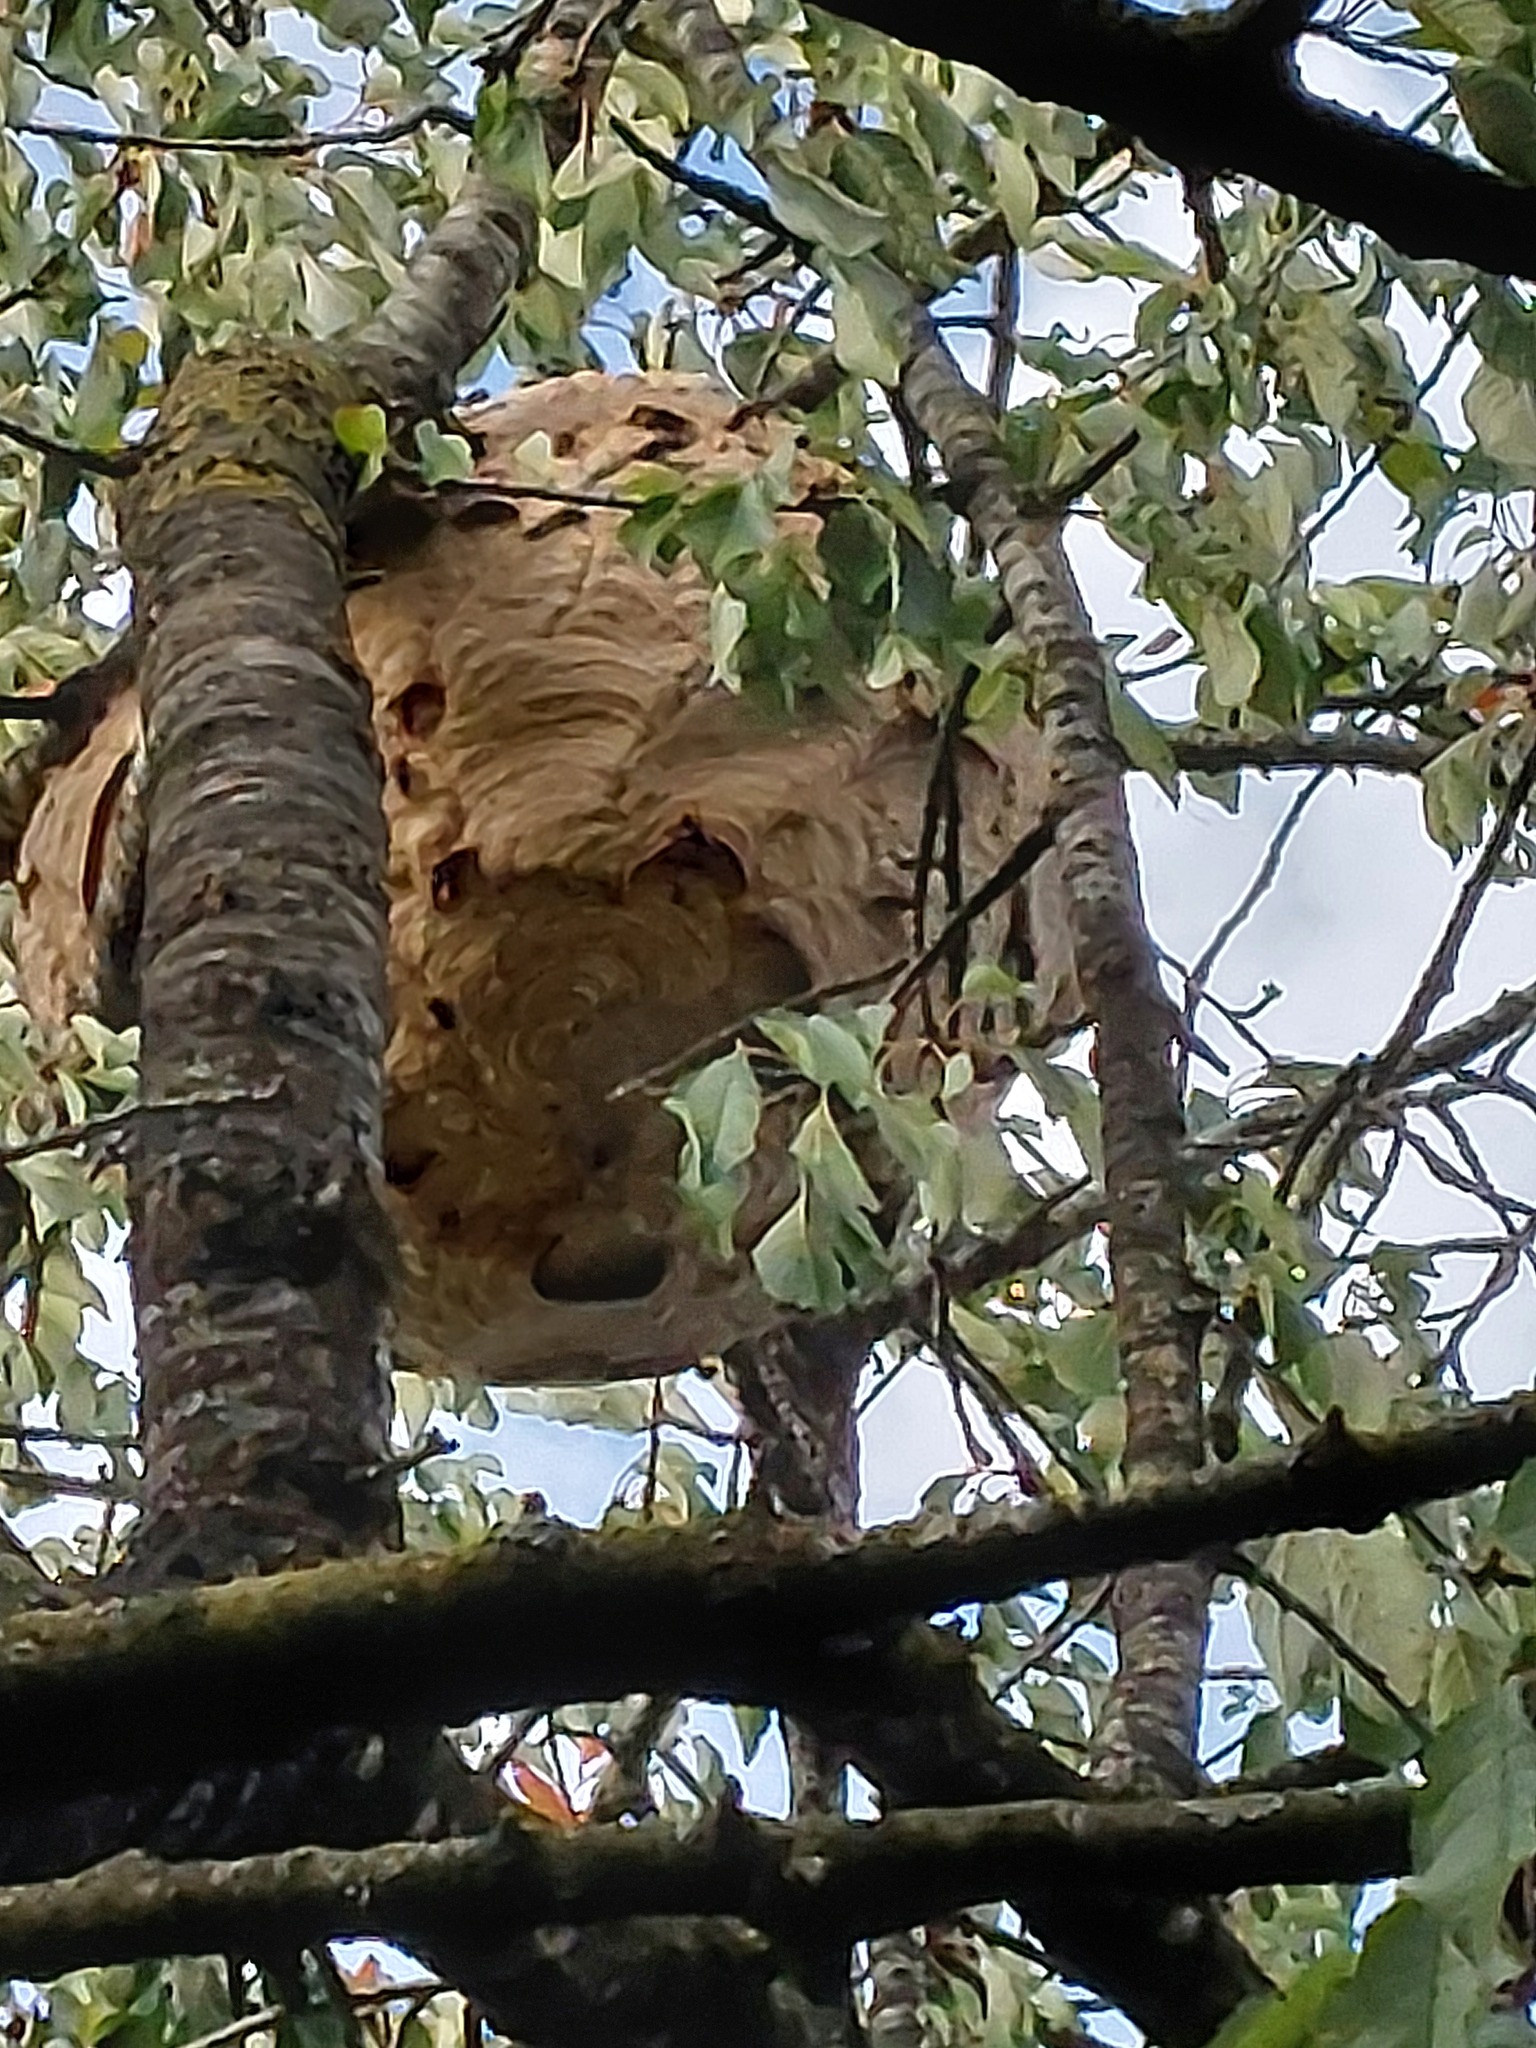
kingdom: Animalia
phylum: Arthropoda
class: Insecta
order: Hymenoptera
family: Vespidae
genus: Vespa
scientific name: Vespa velutina
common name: Asian hornet
